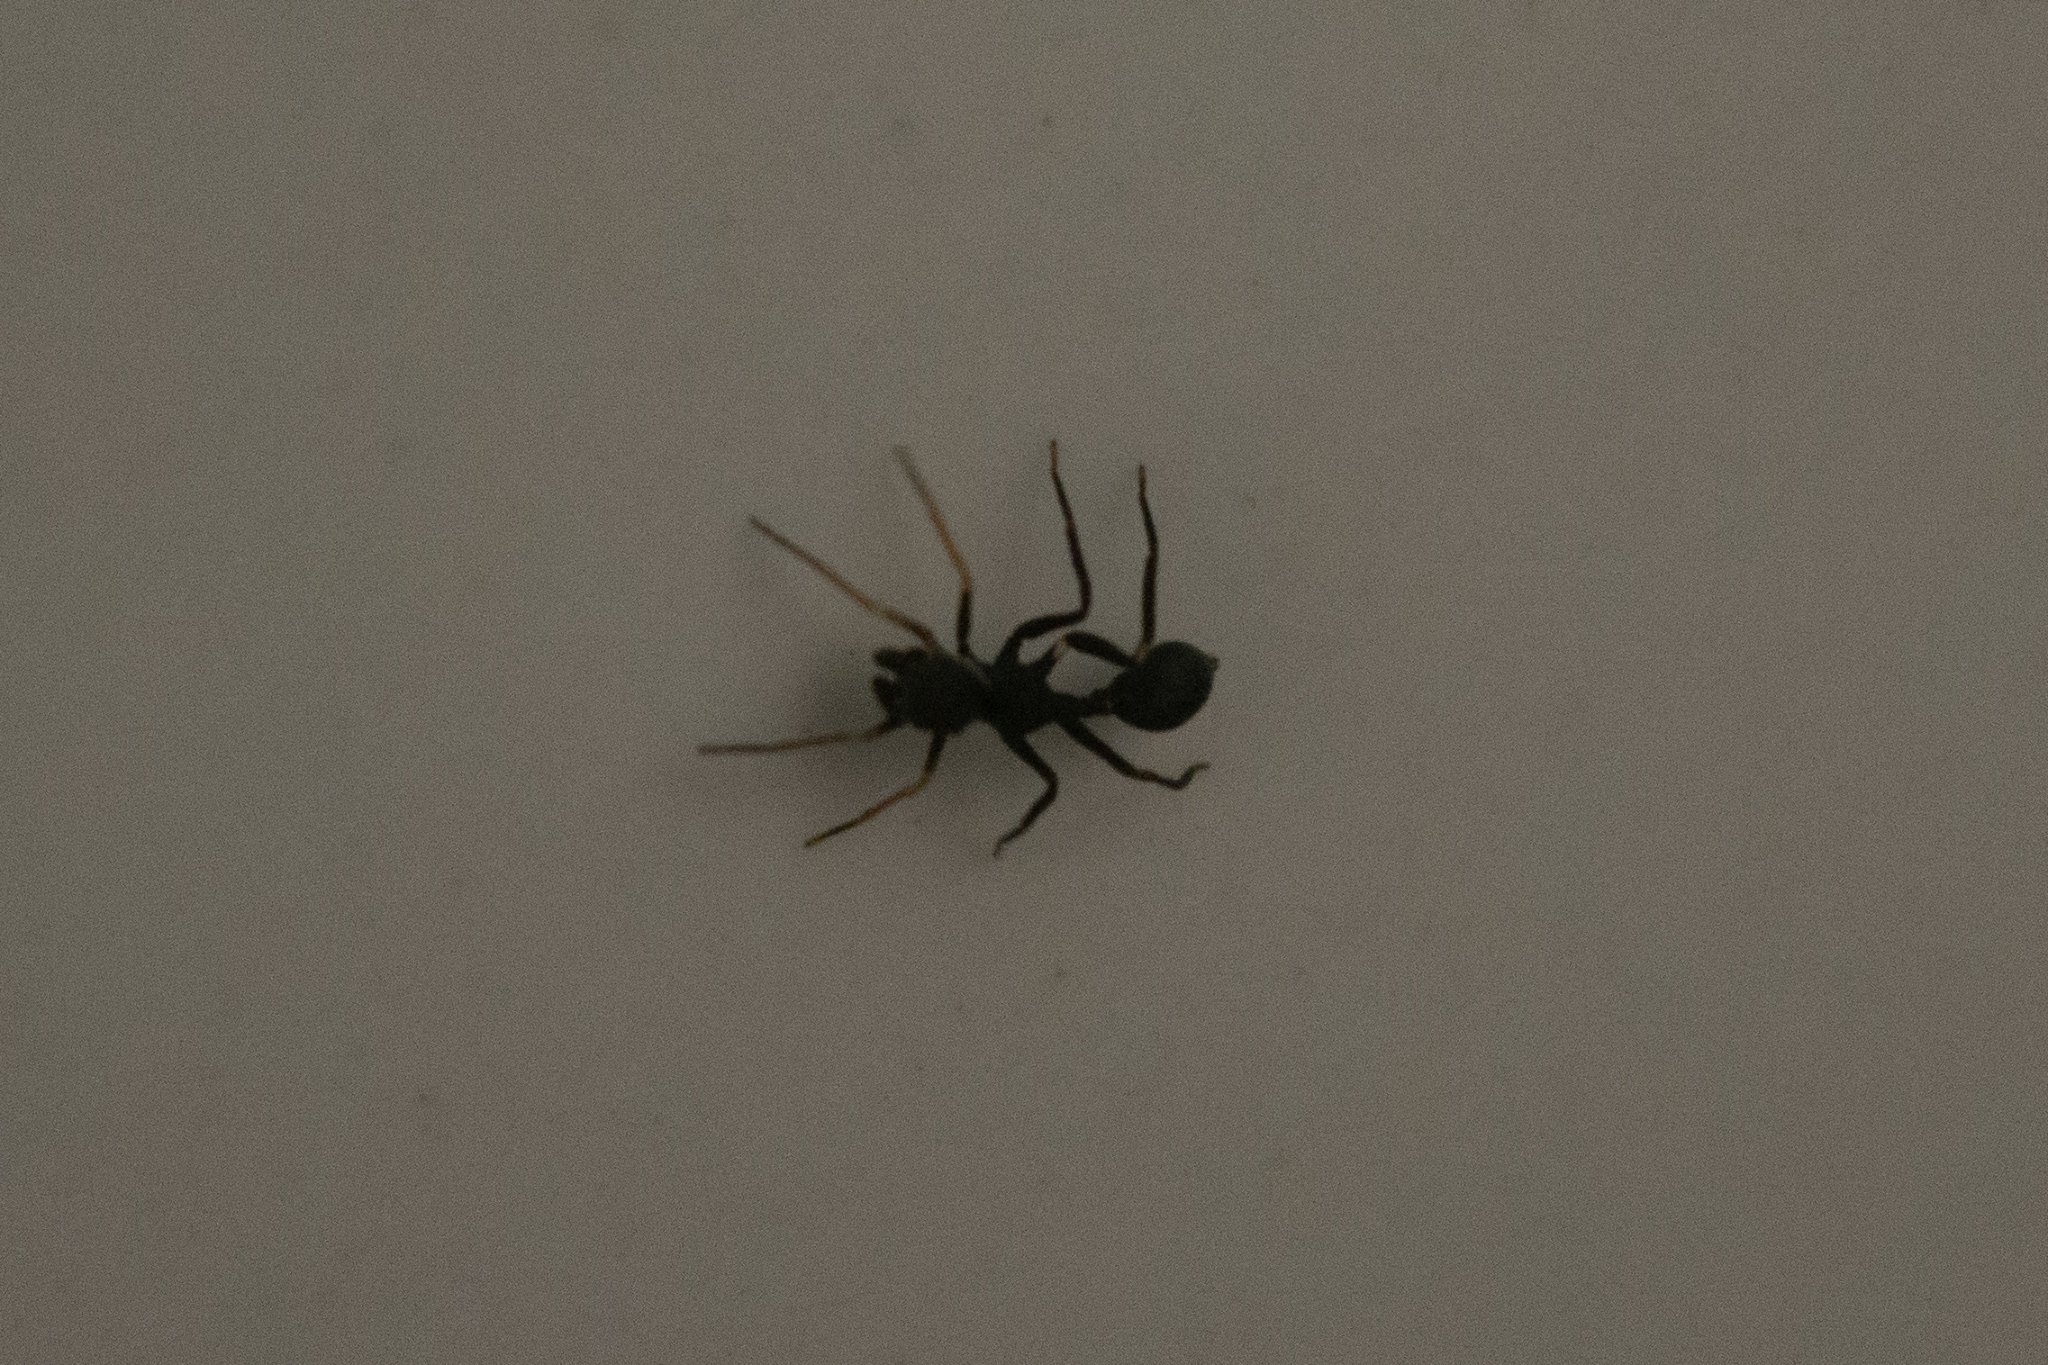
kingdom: Animalia
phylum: Arthropoda
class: Arachnida
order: Araneae
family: Salticidae
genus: Sympolymnia
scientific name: Sympolymnia lauretta
